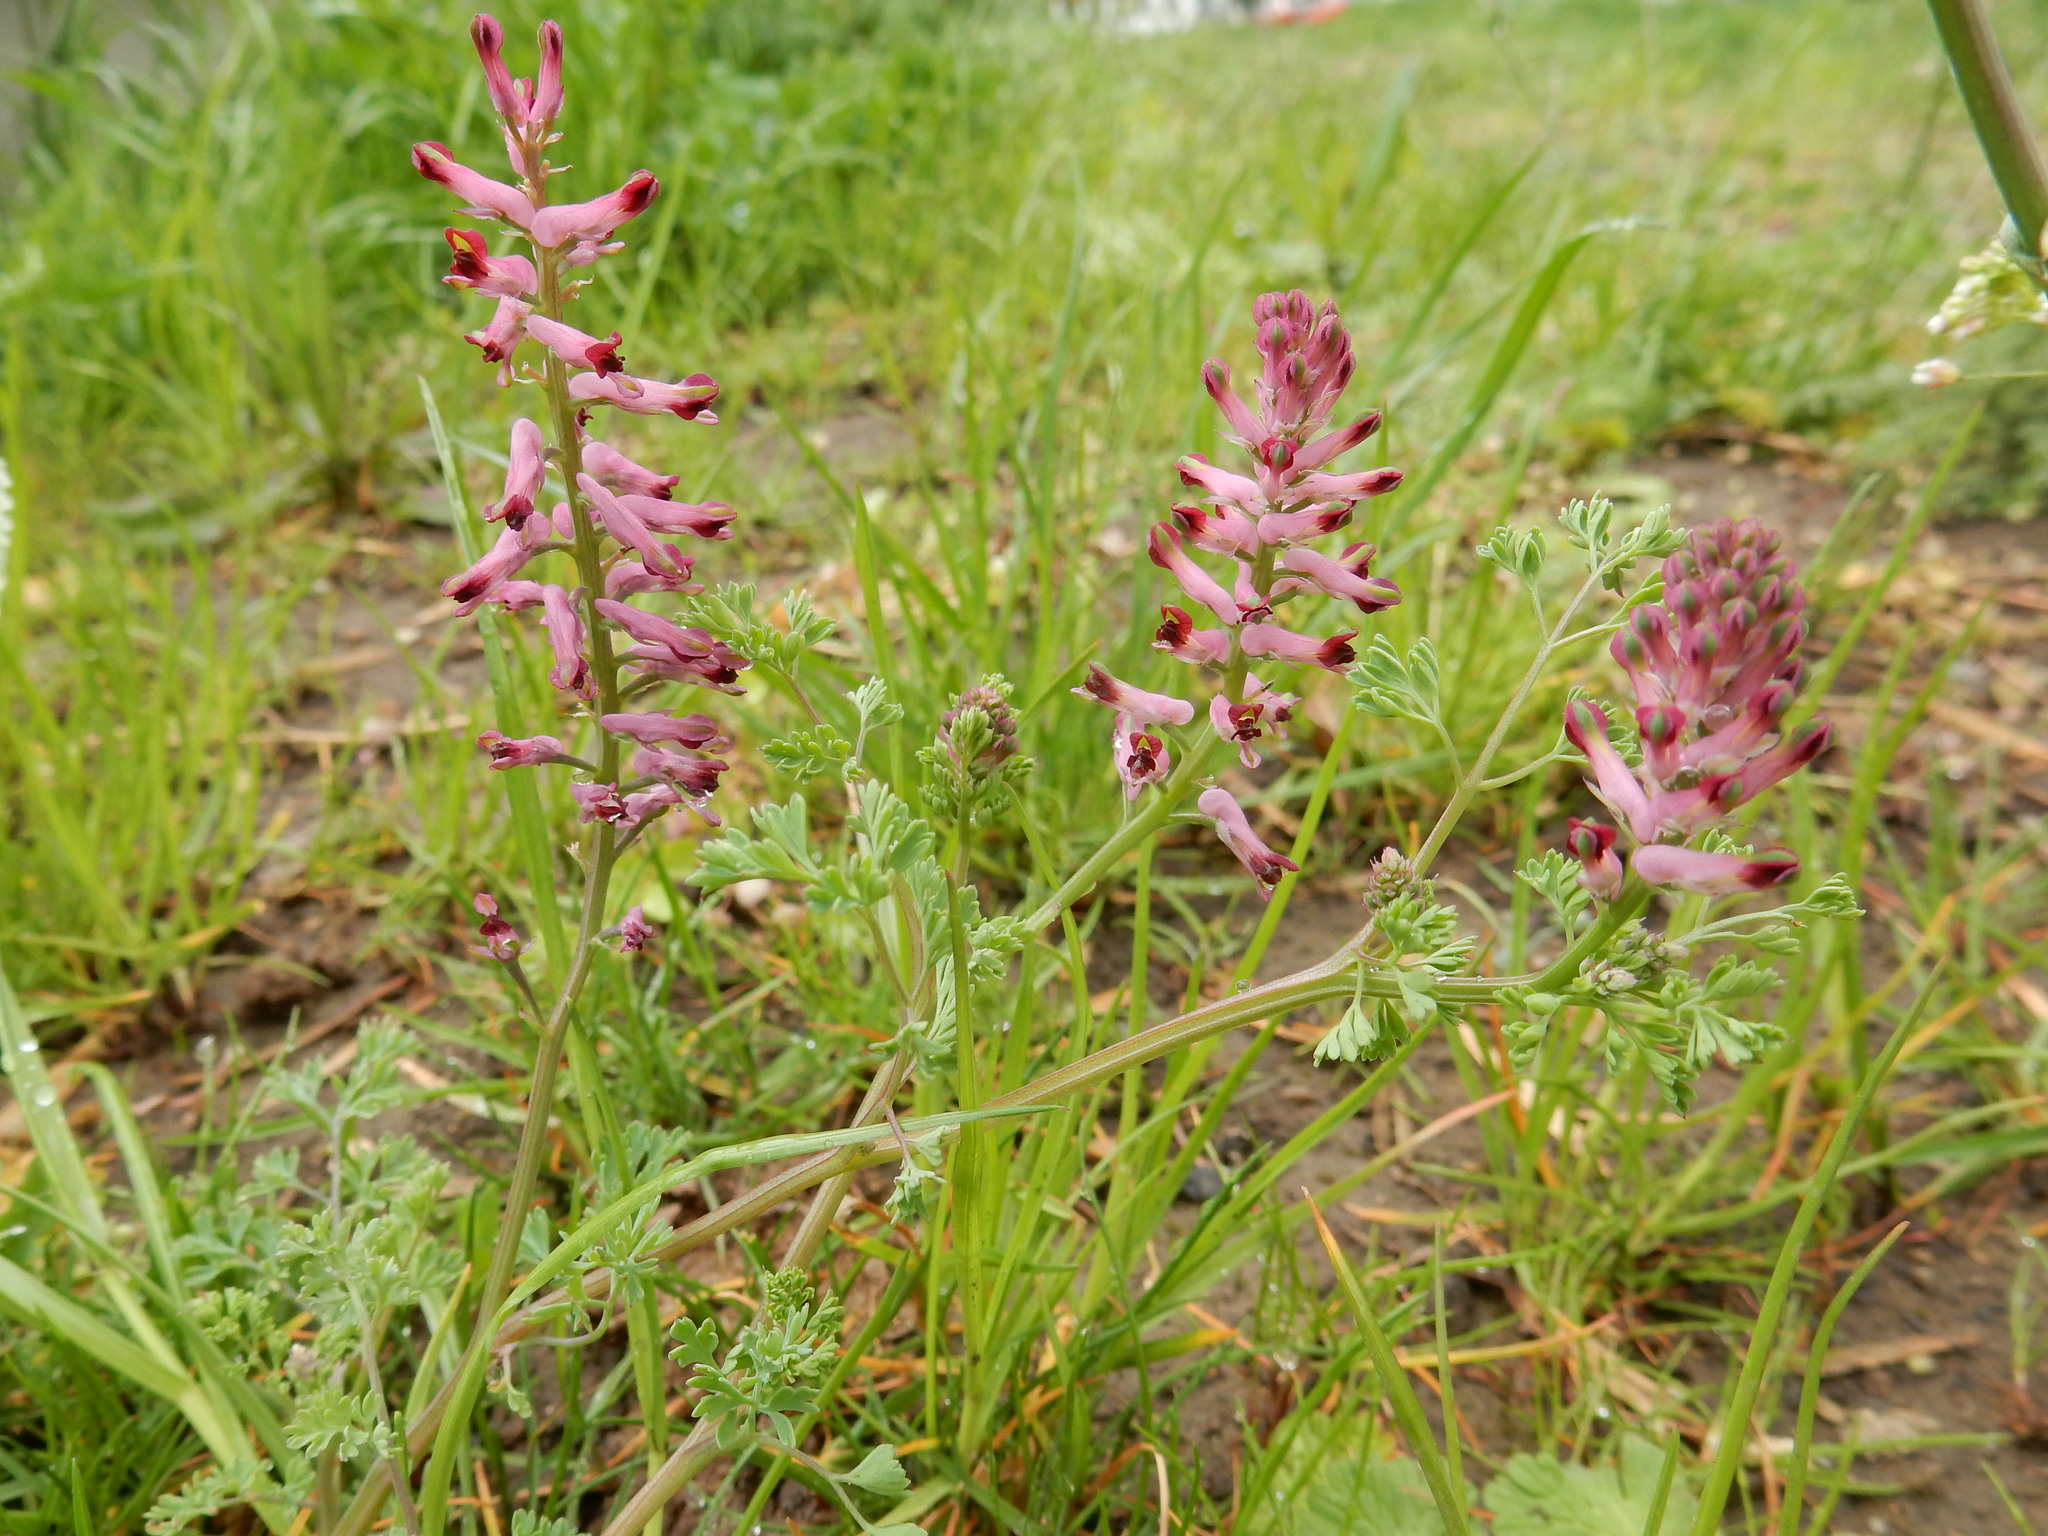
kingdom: Plantae
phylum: Tracheophyta
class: Magnoliopsida
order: Ranunculales
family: Papaveraceae
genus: Fumaria
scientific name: Fumaria officinalis
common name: Common fumitory
